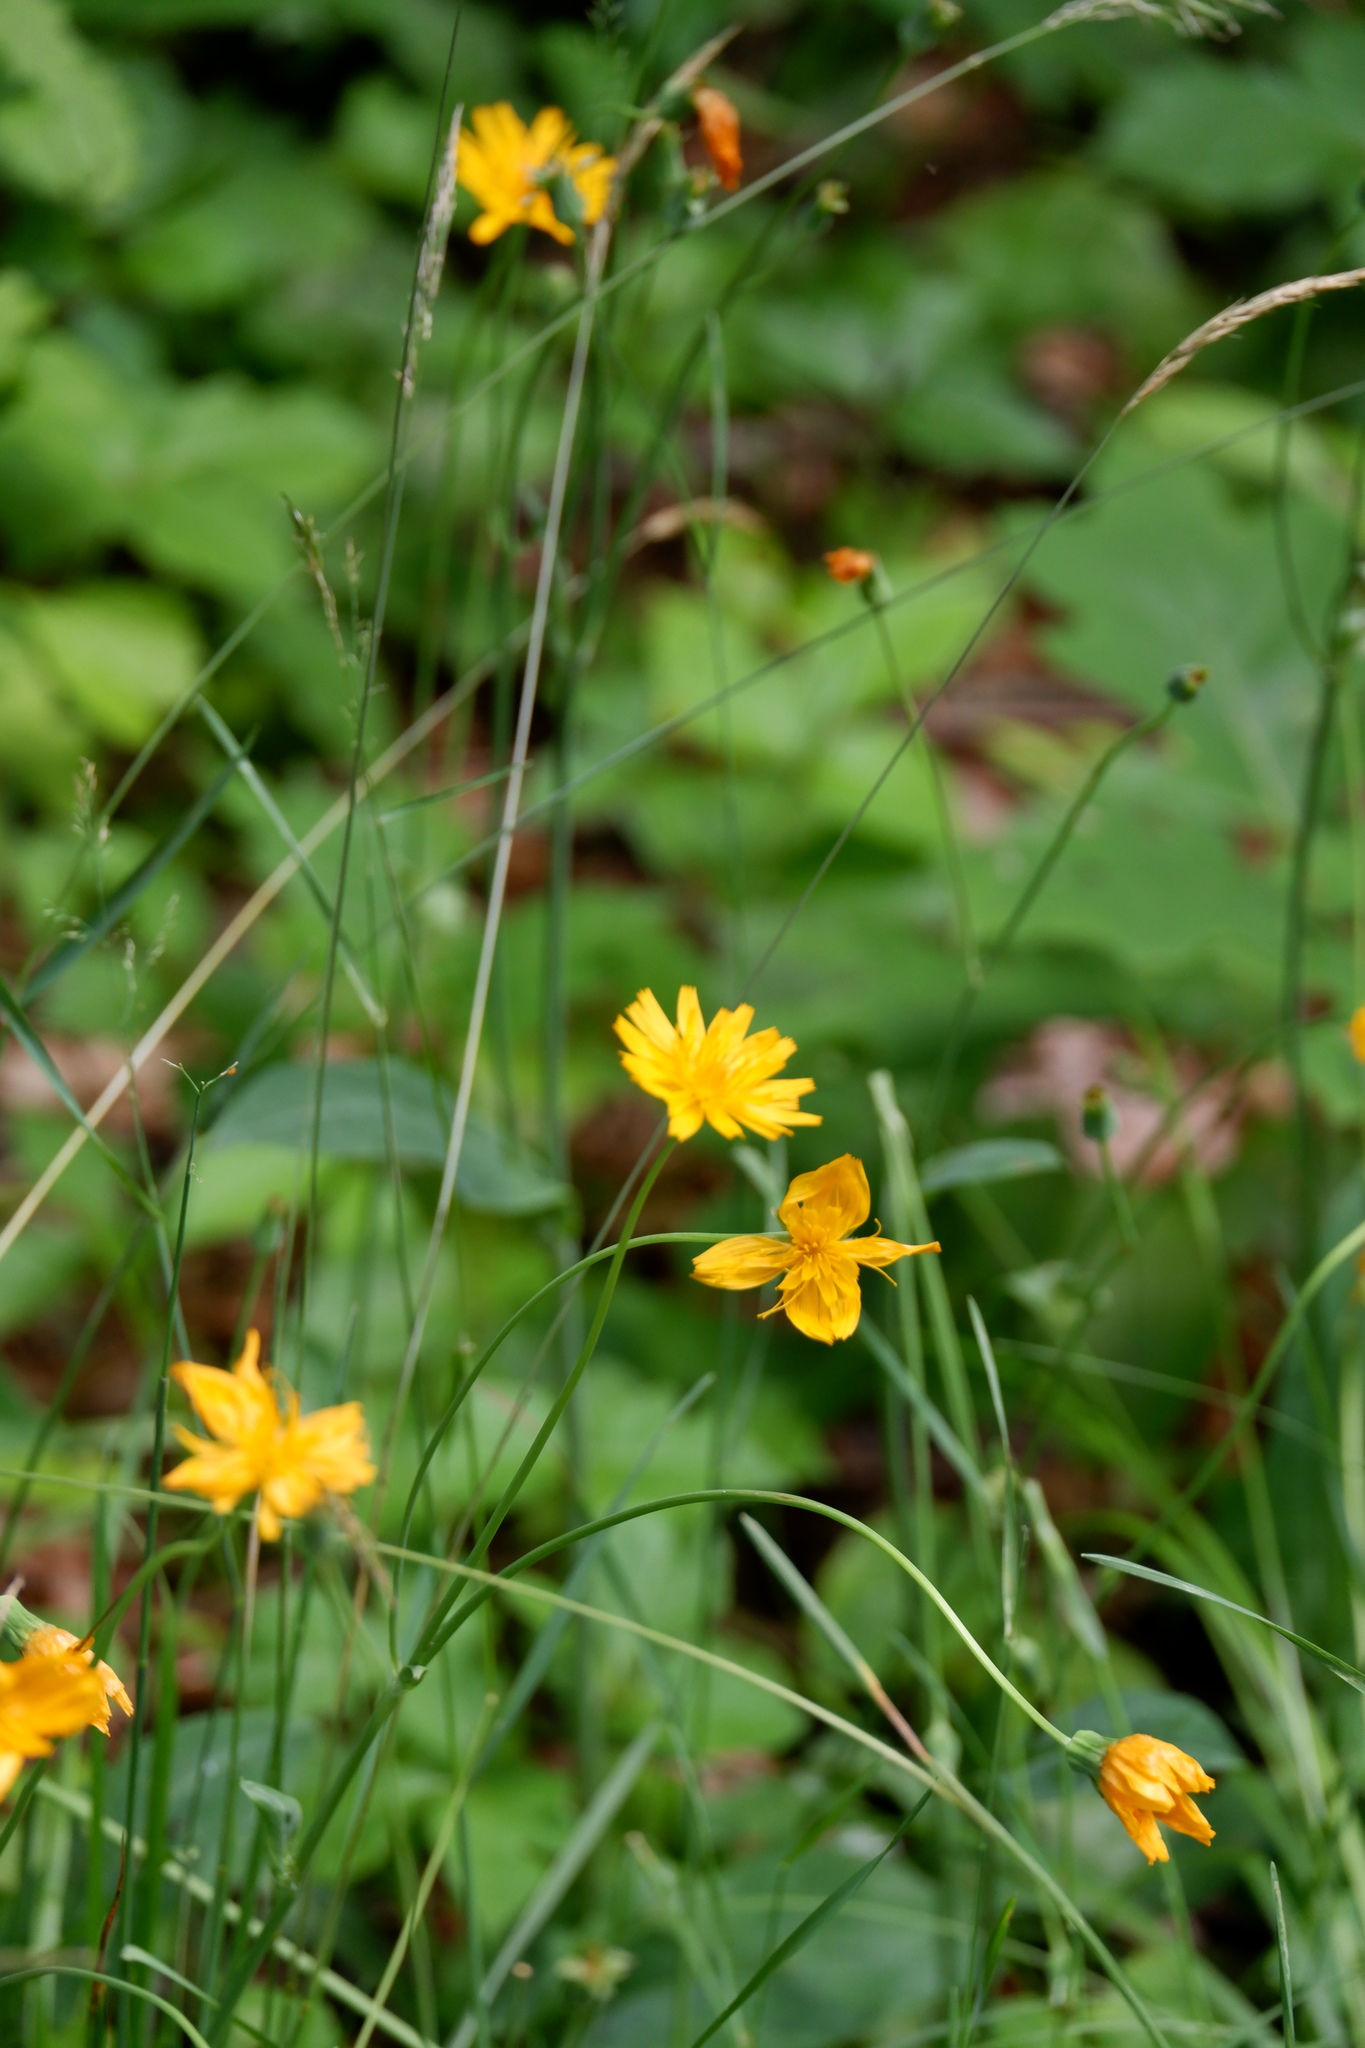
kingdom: Plantae
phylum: Tracheophyta
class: Magnoliopsida
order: Asterales
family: Asteraceae
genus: Krigia
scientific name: Krigia biflora
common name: Orange dwarf-dandelion
